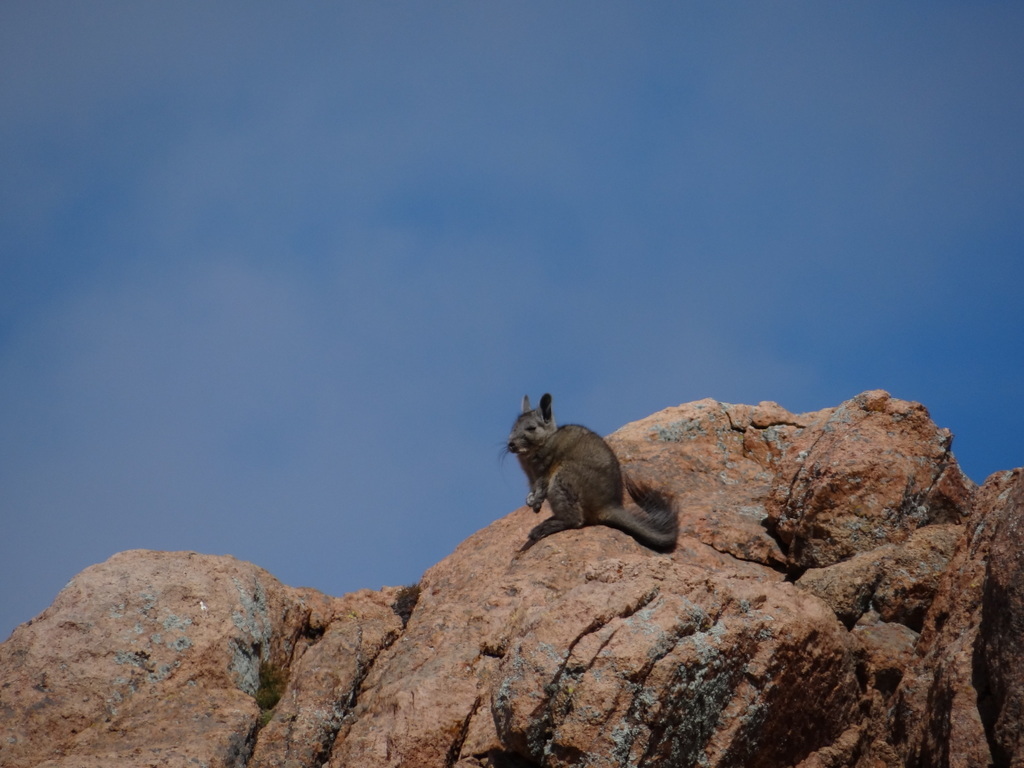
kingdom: Animalia
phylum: Chordata
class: Mammalia
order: Rodentia
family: Chinchillidae
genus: Lagidium
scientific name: Lagidium viscacia
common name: Southern viscacha
